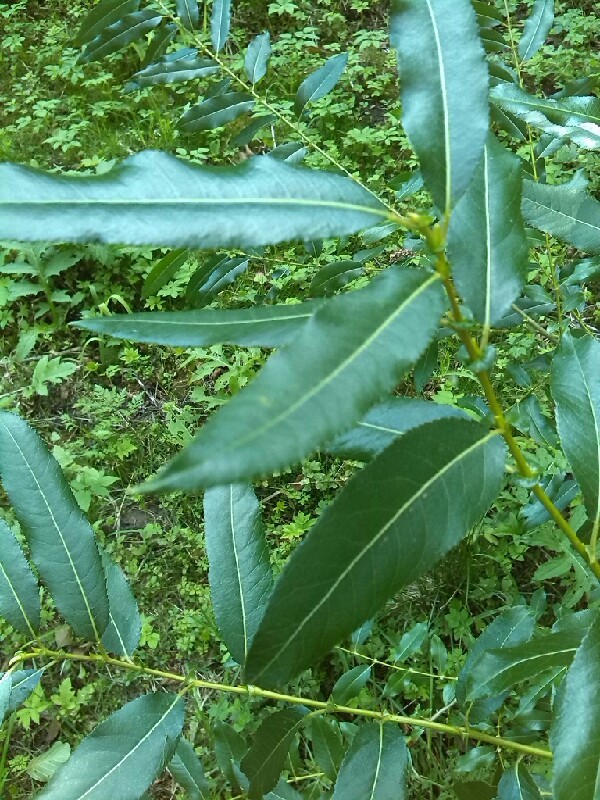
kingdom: Plantae
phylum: Tracheophyta
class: Magnoliopsida
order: Malpighiales
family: Salicaceae
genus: Salix
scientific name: Salix triandra
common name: Almond willow
